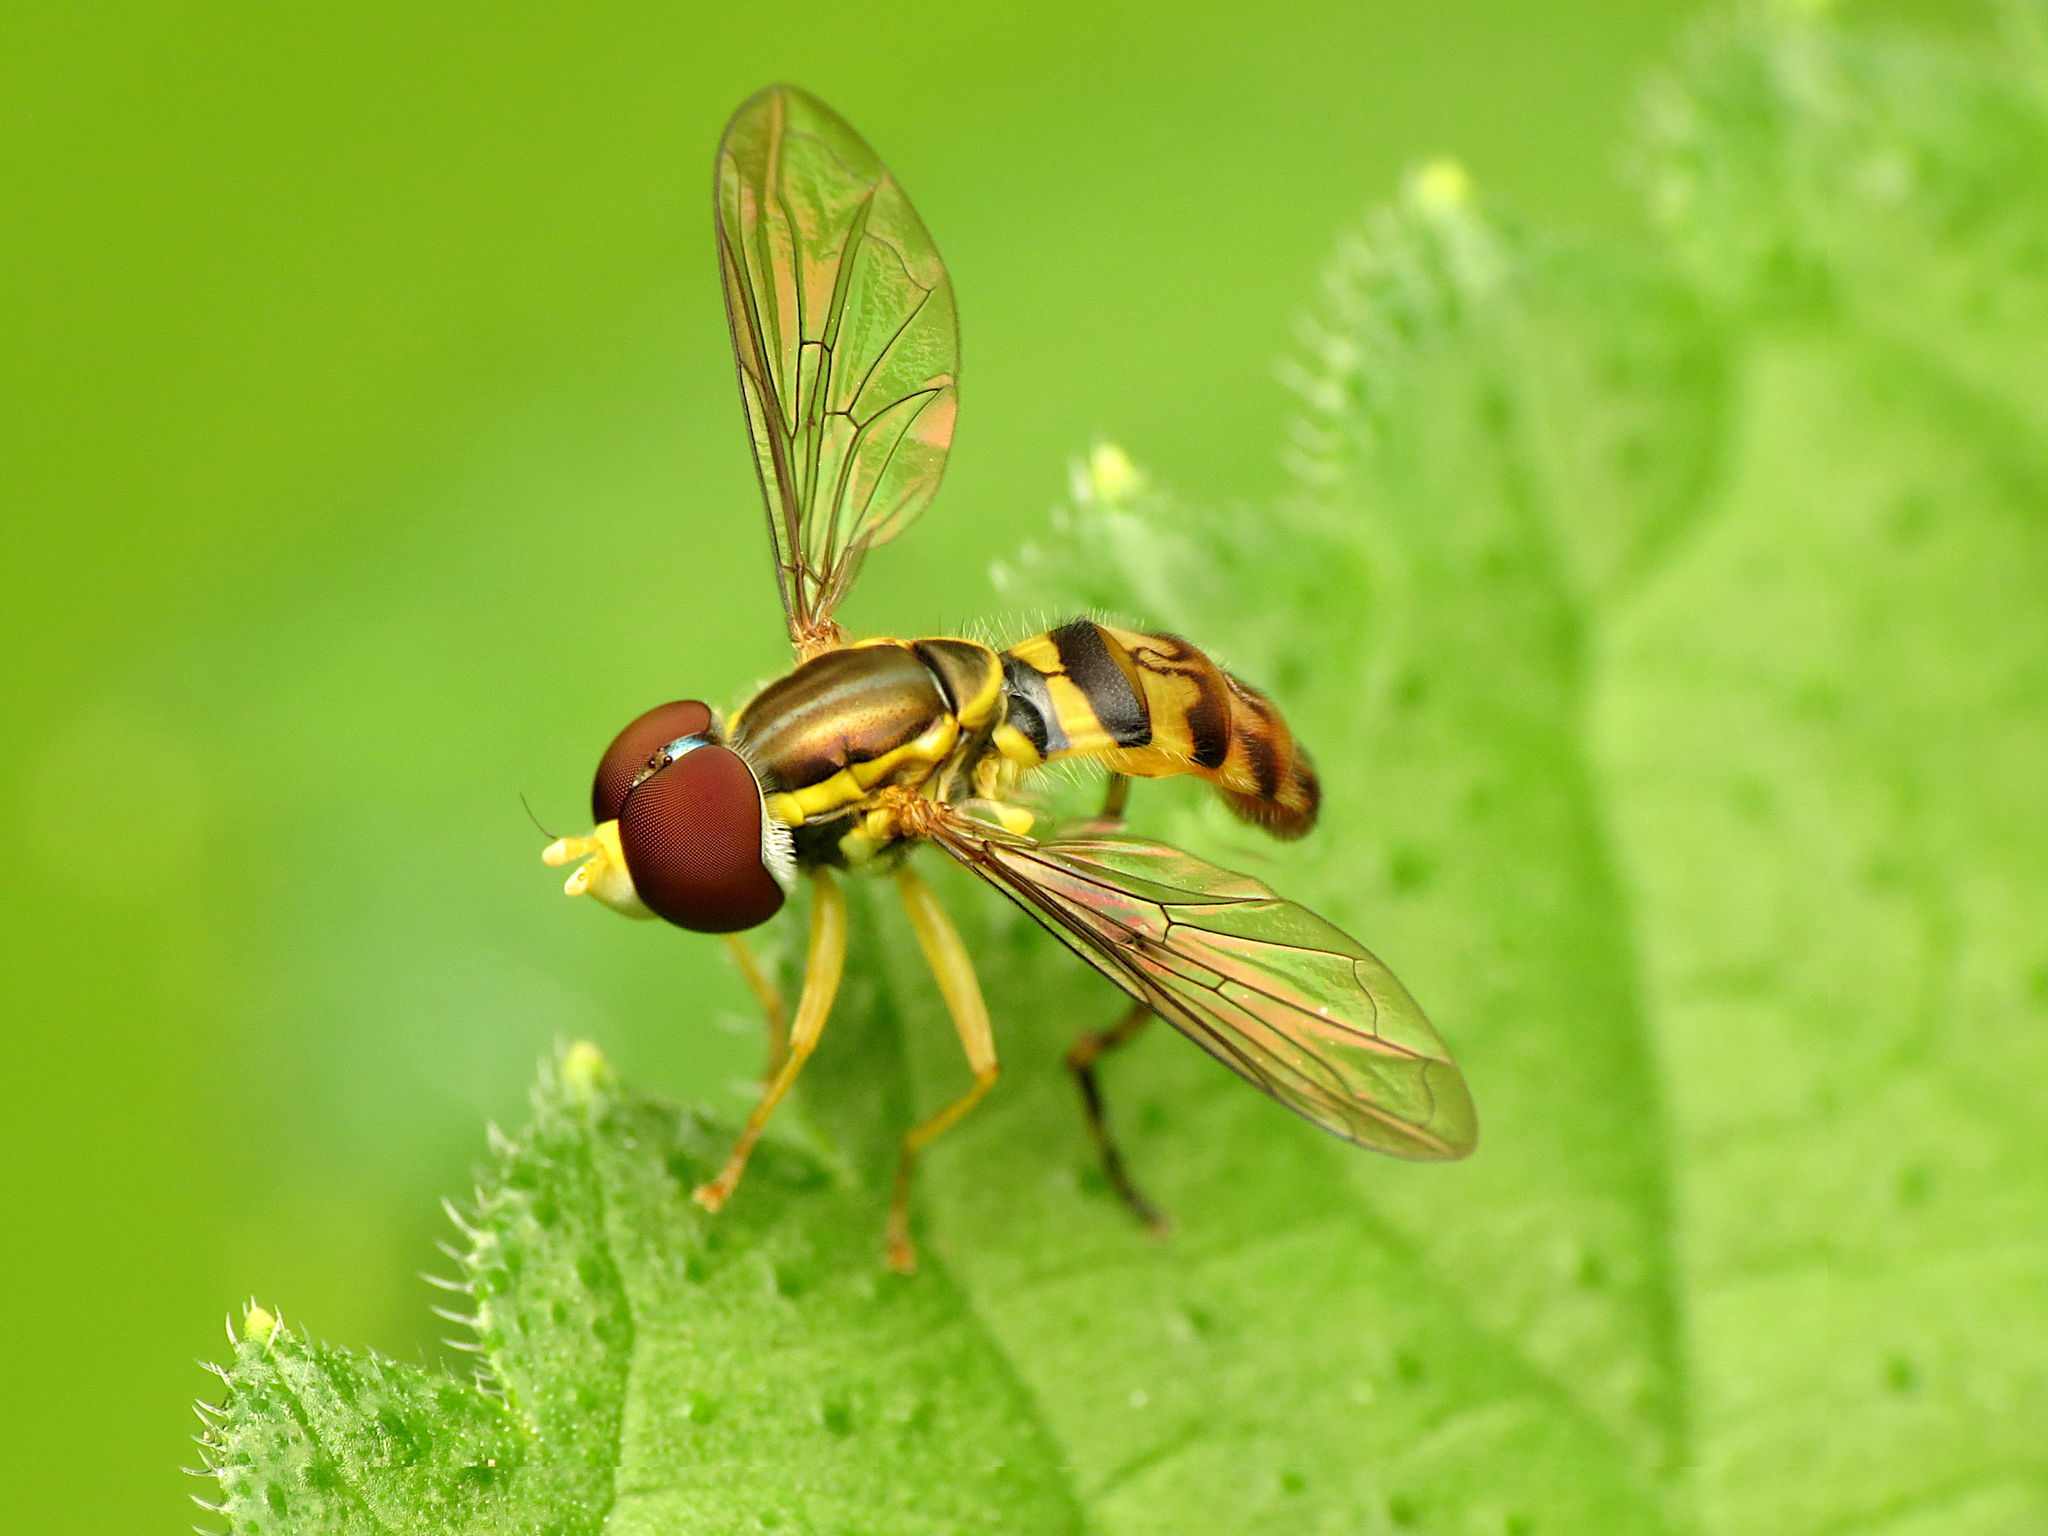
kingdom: Animalia
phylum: Arthropoda
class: Insecta
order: Diptera
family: Syrphidae
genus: Toxomerus
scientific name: Toxomerus geminatus
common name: Eastern calligrapher
